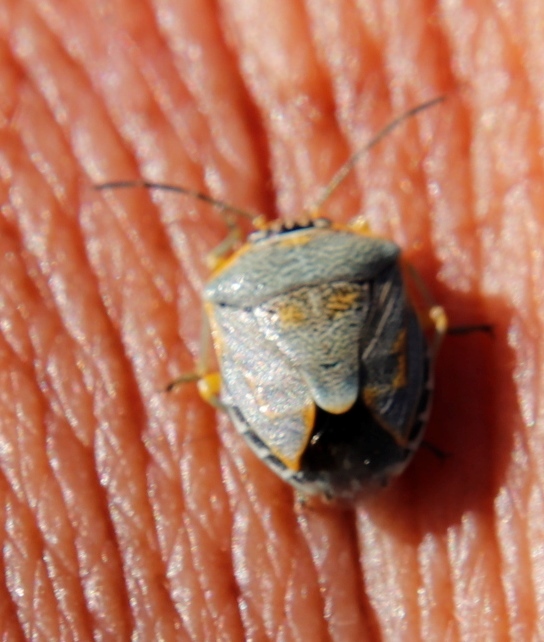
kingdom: Animalia
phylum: Arthropoda
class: Insecta
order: Hemiptera
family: Pentatomidae
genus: Antestiopsis
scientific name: Antestiopsis thunbergii
